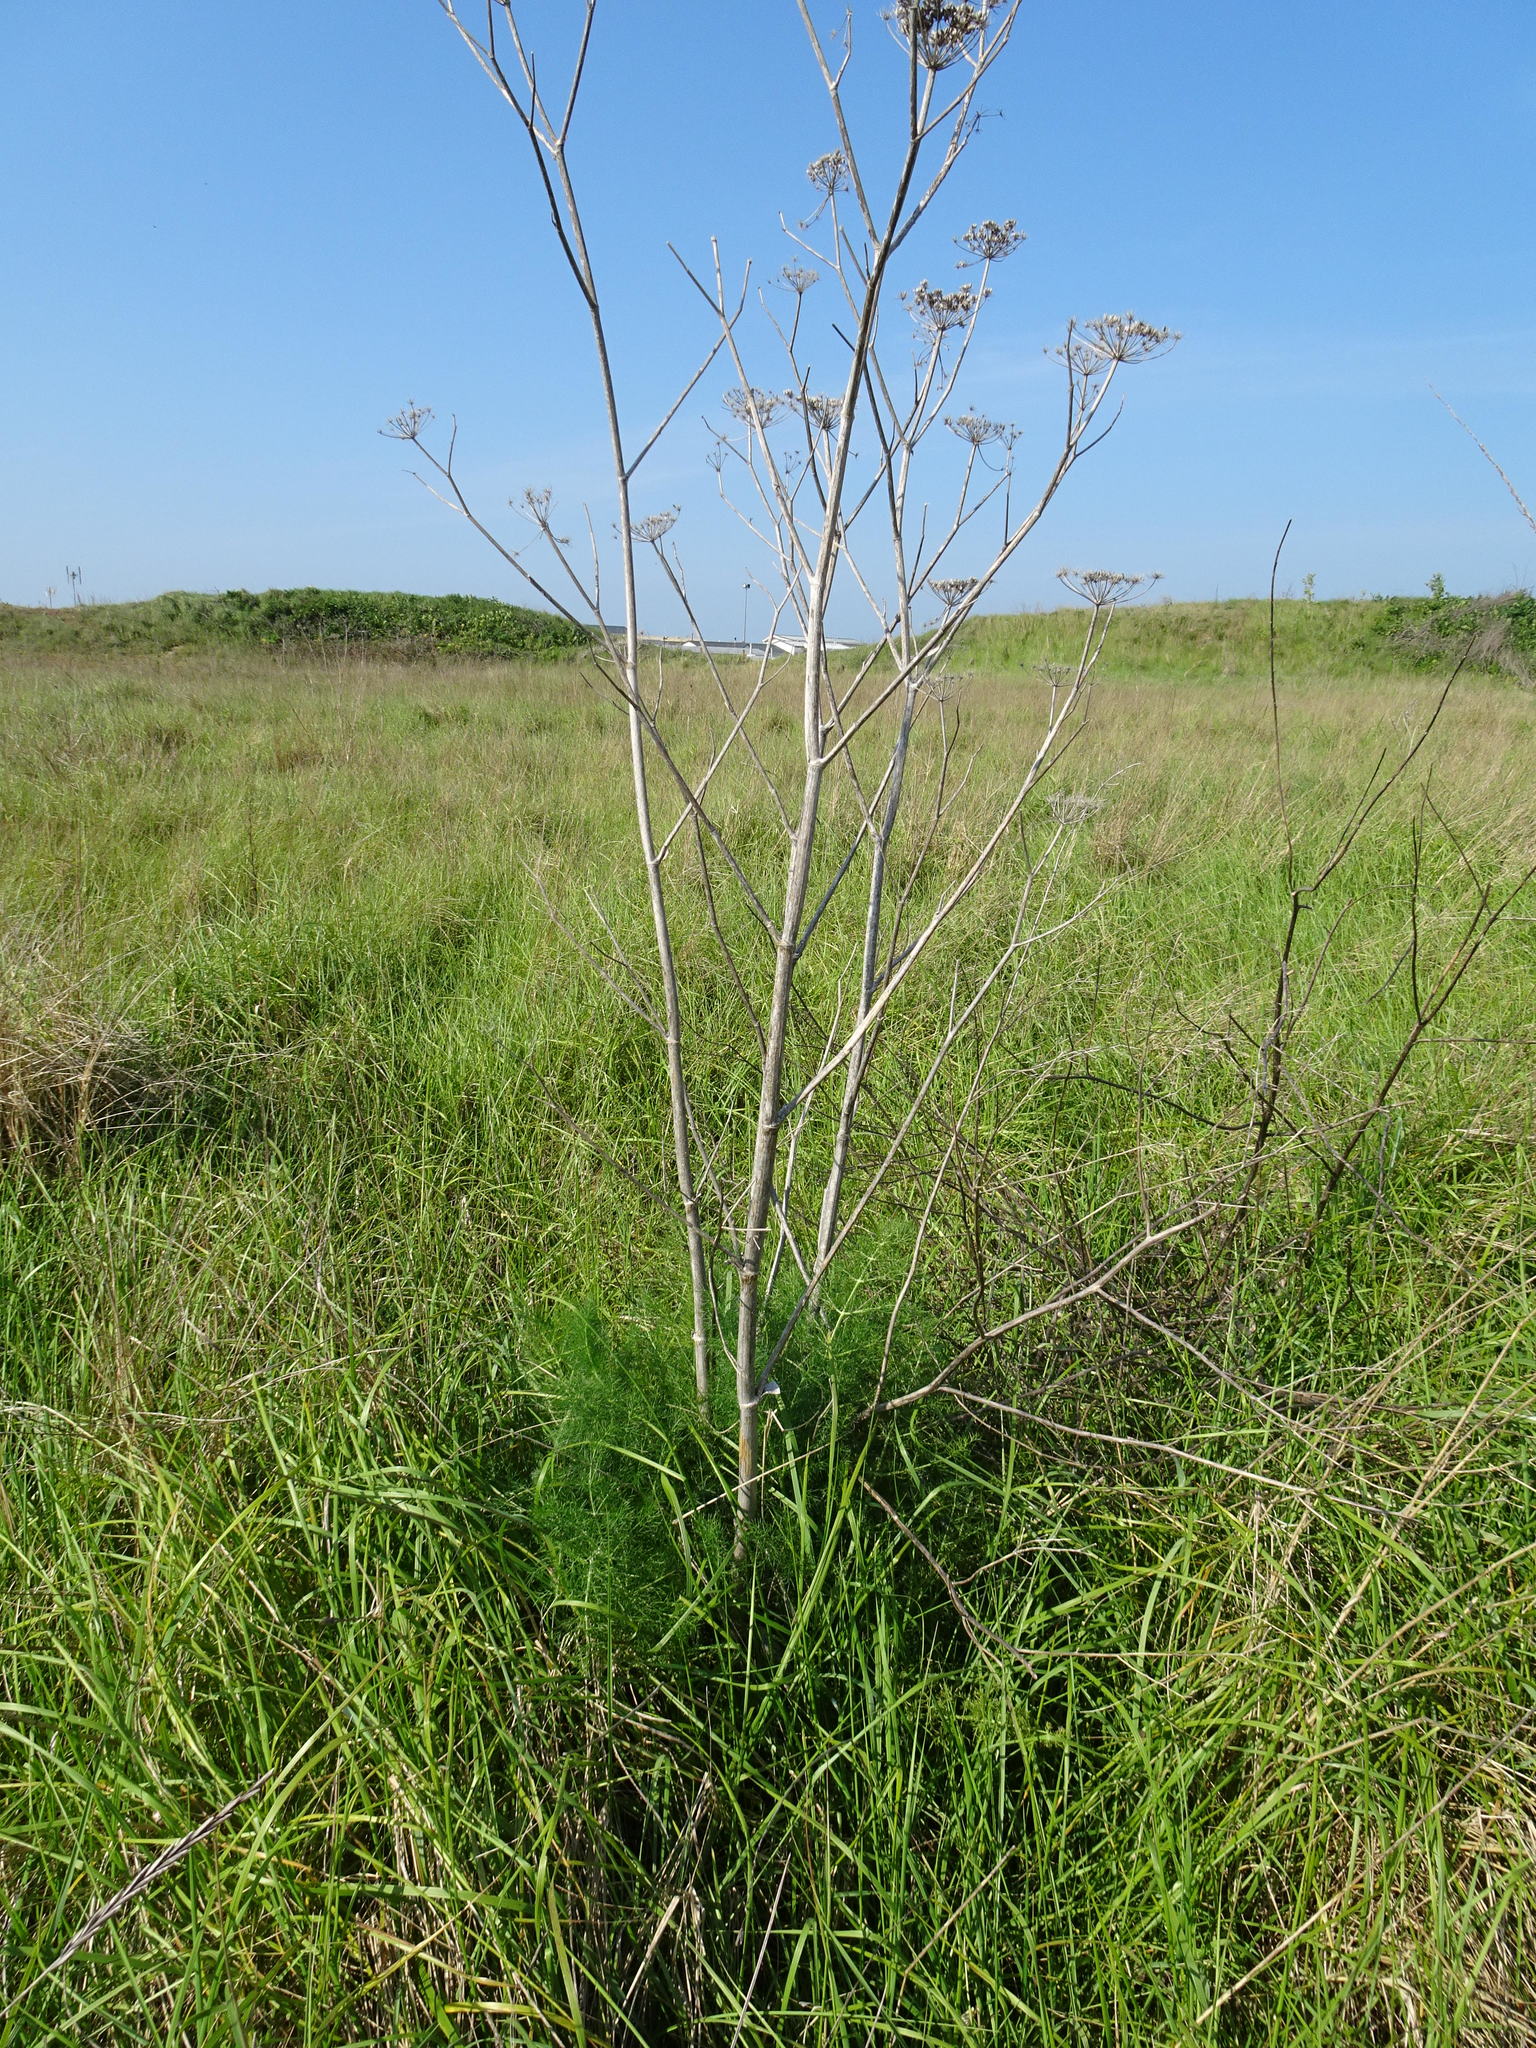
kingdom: Plantae
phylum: Tracheophyta
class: Magnoliopsida
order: Apiales
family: Apiaceae
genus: Foeniculum
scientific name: Foeniculum vulgare
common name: Fennel
